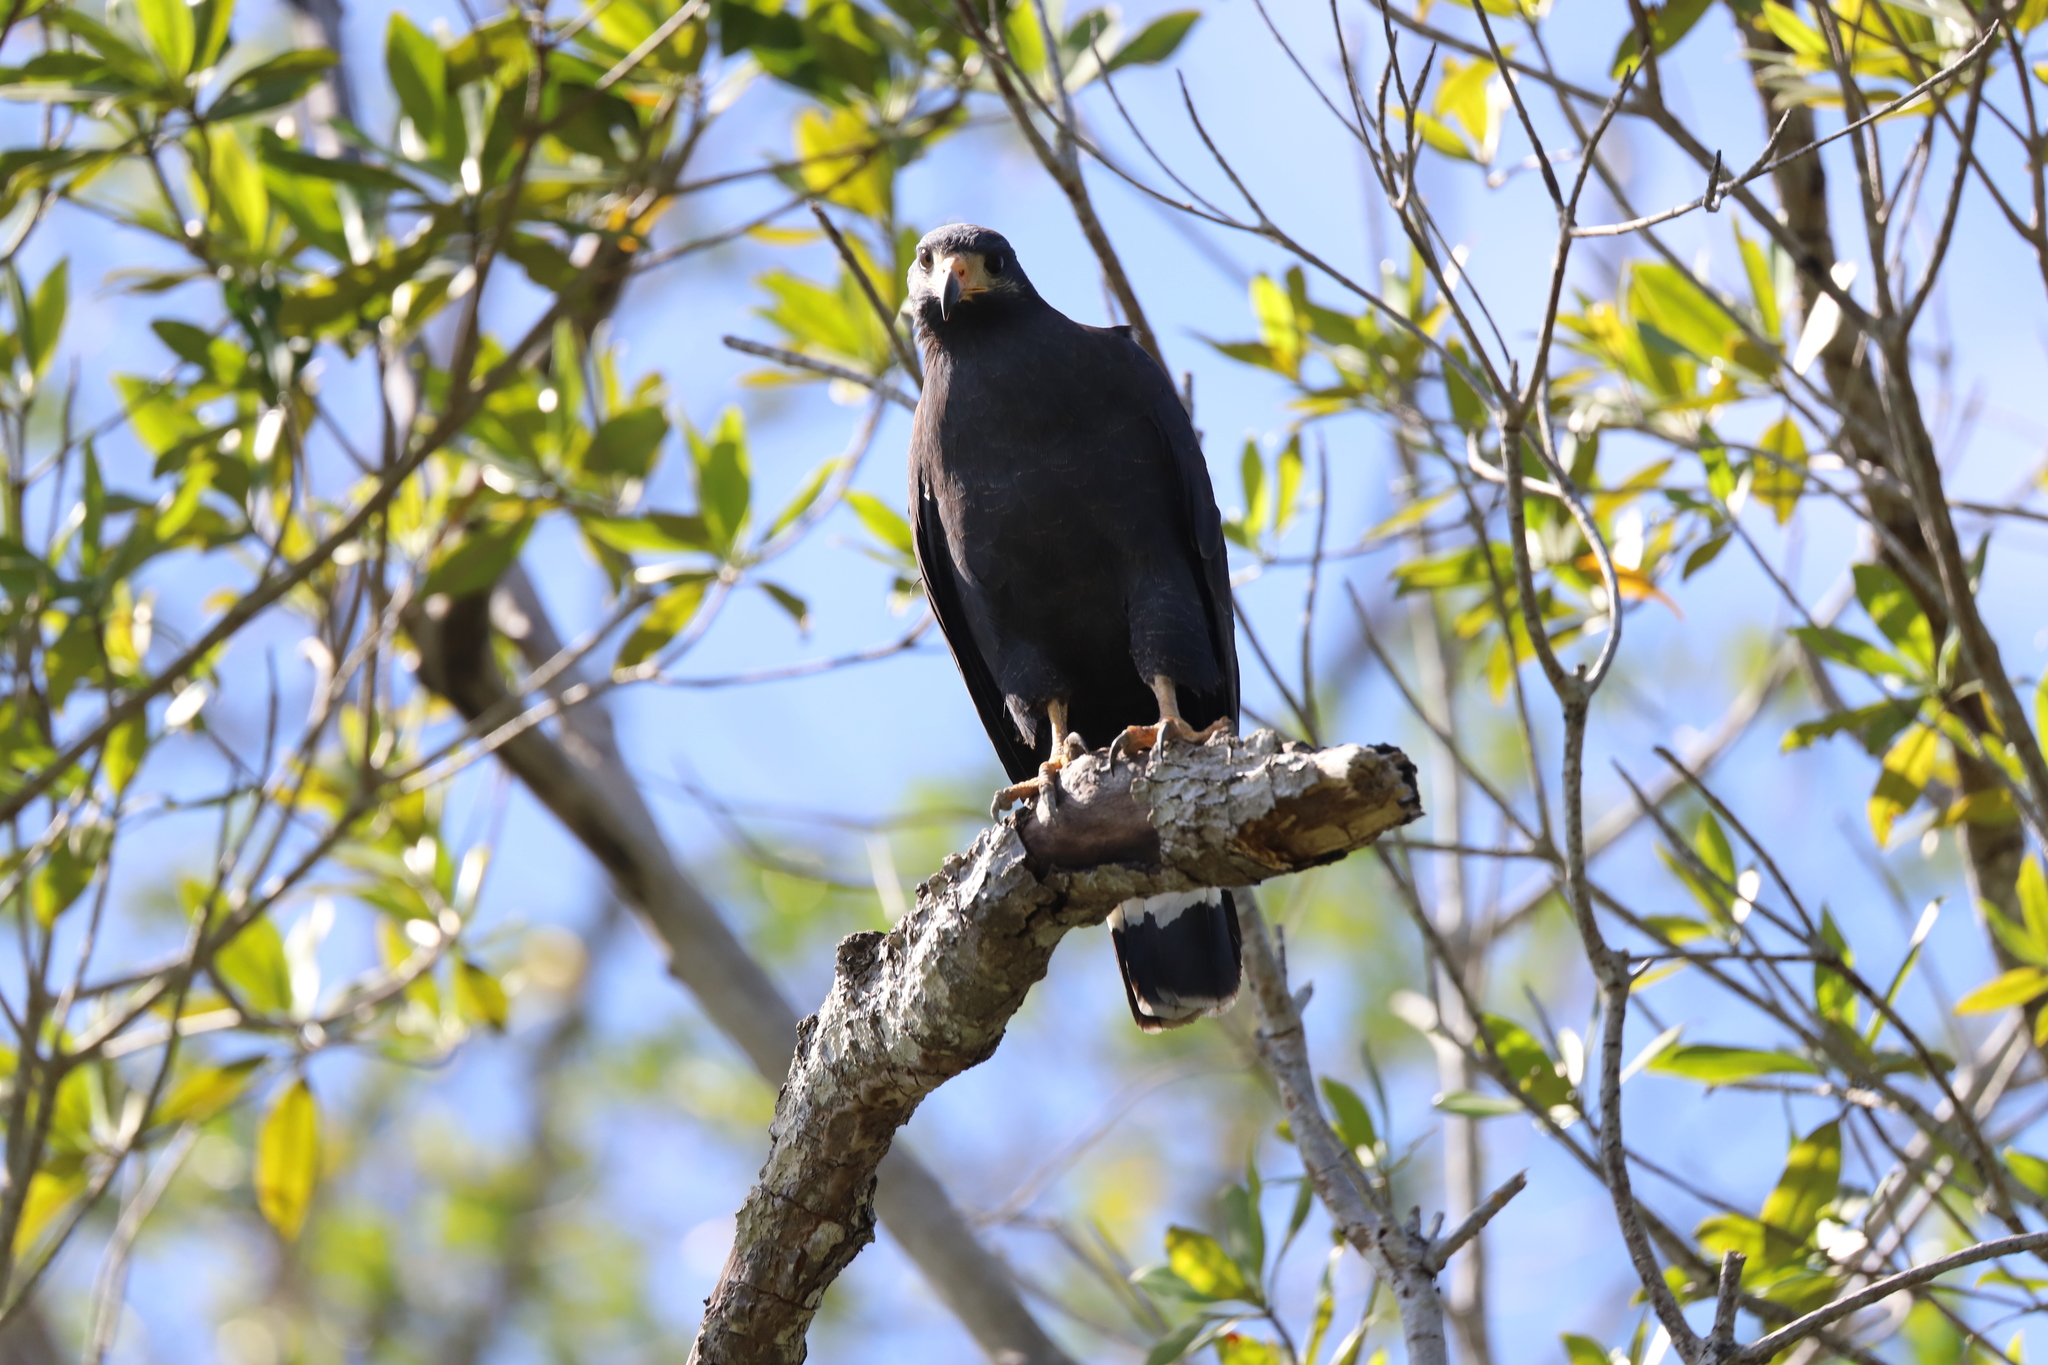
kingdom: Animalia
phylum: Chordata
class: Aves
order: Accipitriformes
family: Accipitridae
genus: Buteogallus
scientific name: Buteogallus anthracinus
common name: Common black hawk
